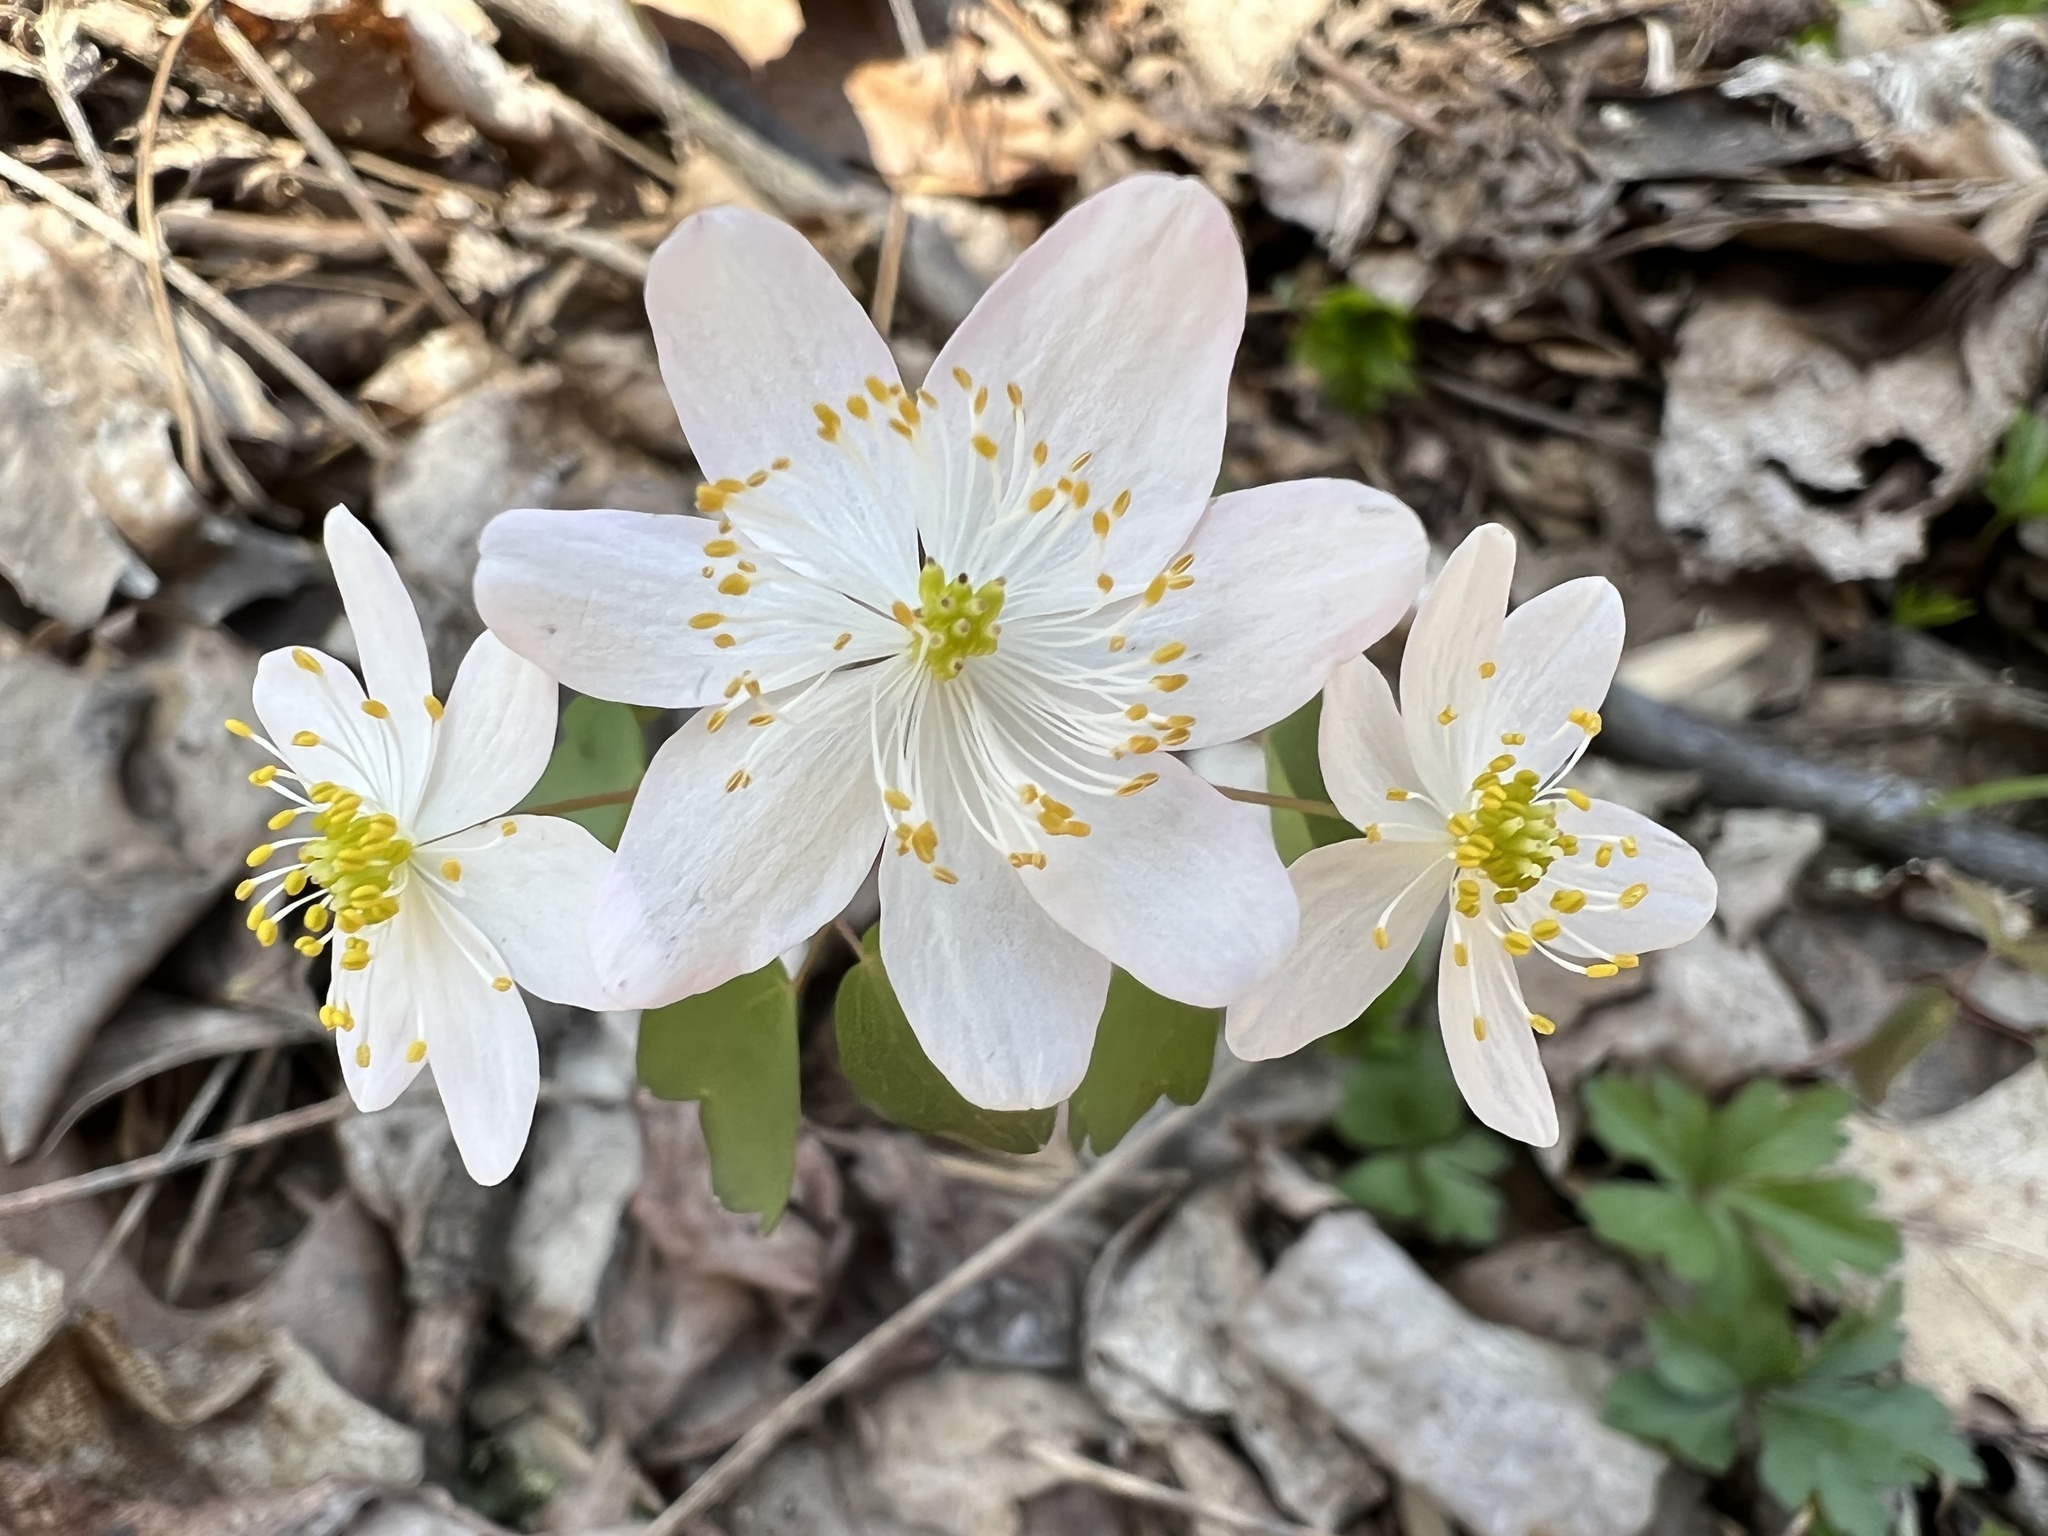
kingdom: Plantae
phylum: Tracheophyta
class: Magnoliopsida
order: Ranunculales
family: Ranunculaceae
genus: Thalictrum
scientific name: Thalictrum thalictroides
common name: Rue-anemone
